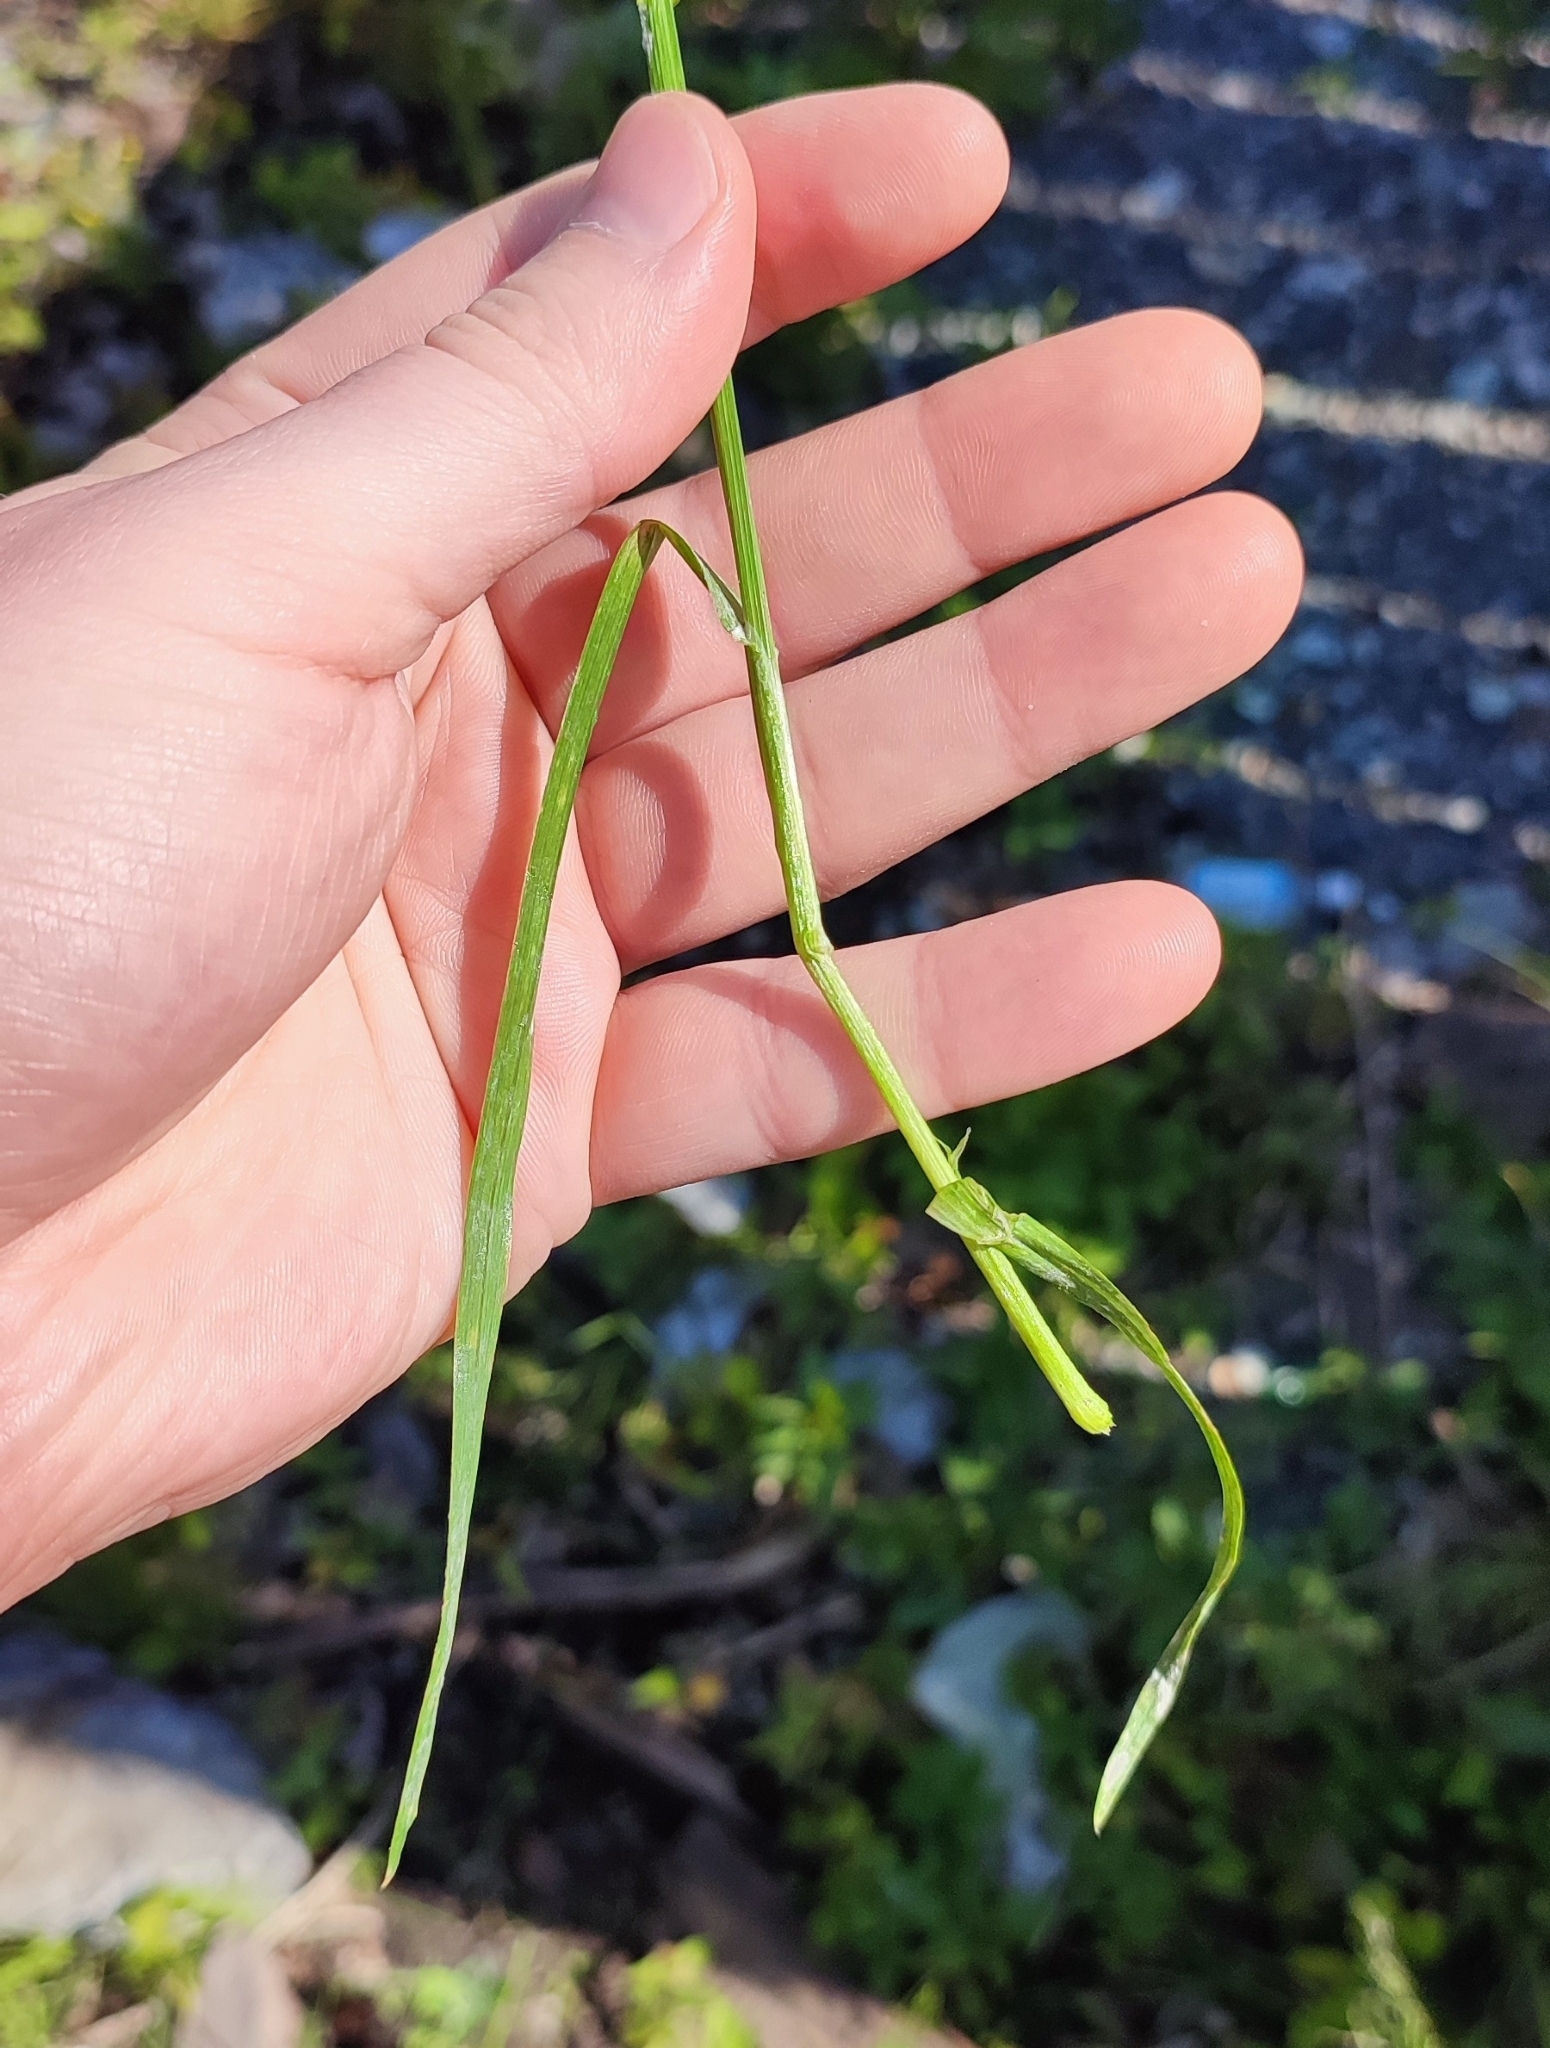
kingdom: Plantae
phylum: Tracheophyta
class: Liliopsida
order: Poales
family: Poaceae
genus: Poa
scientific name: Poa trivialis
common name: Rough bluegrass
